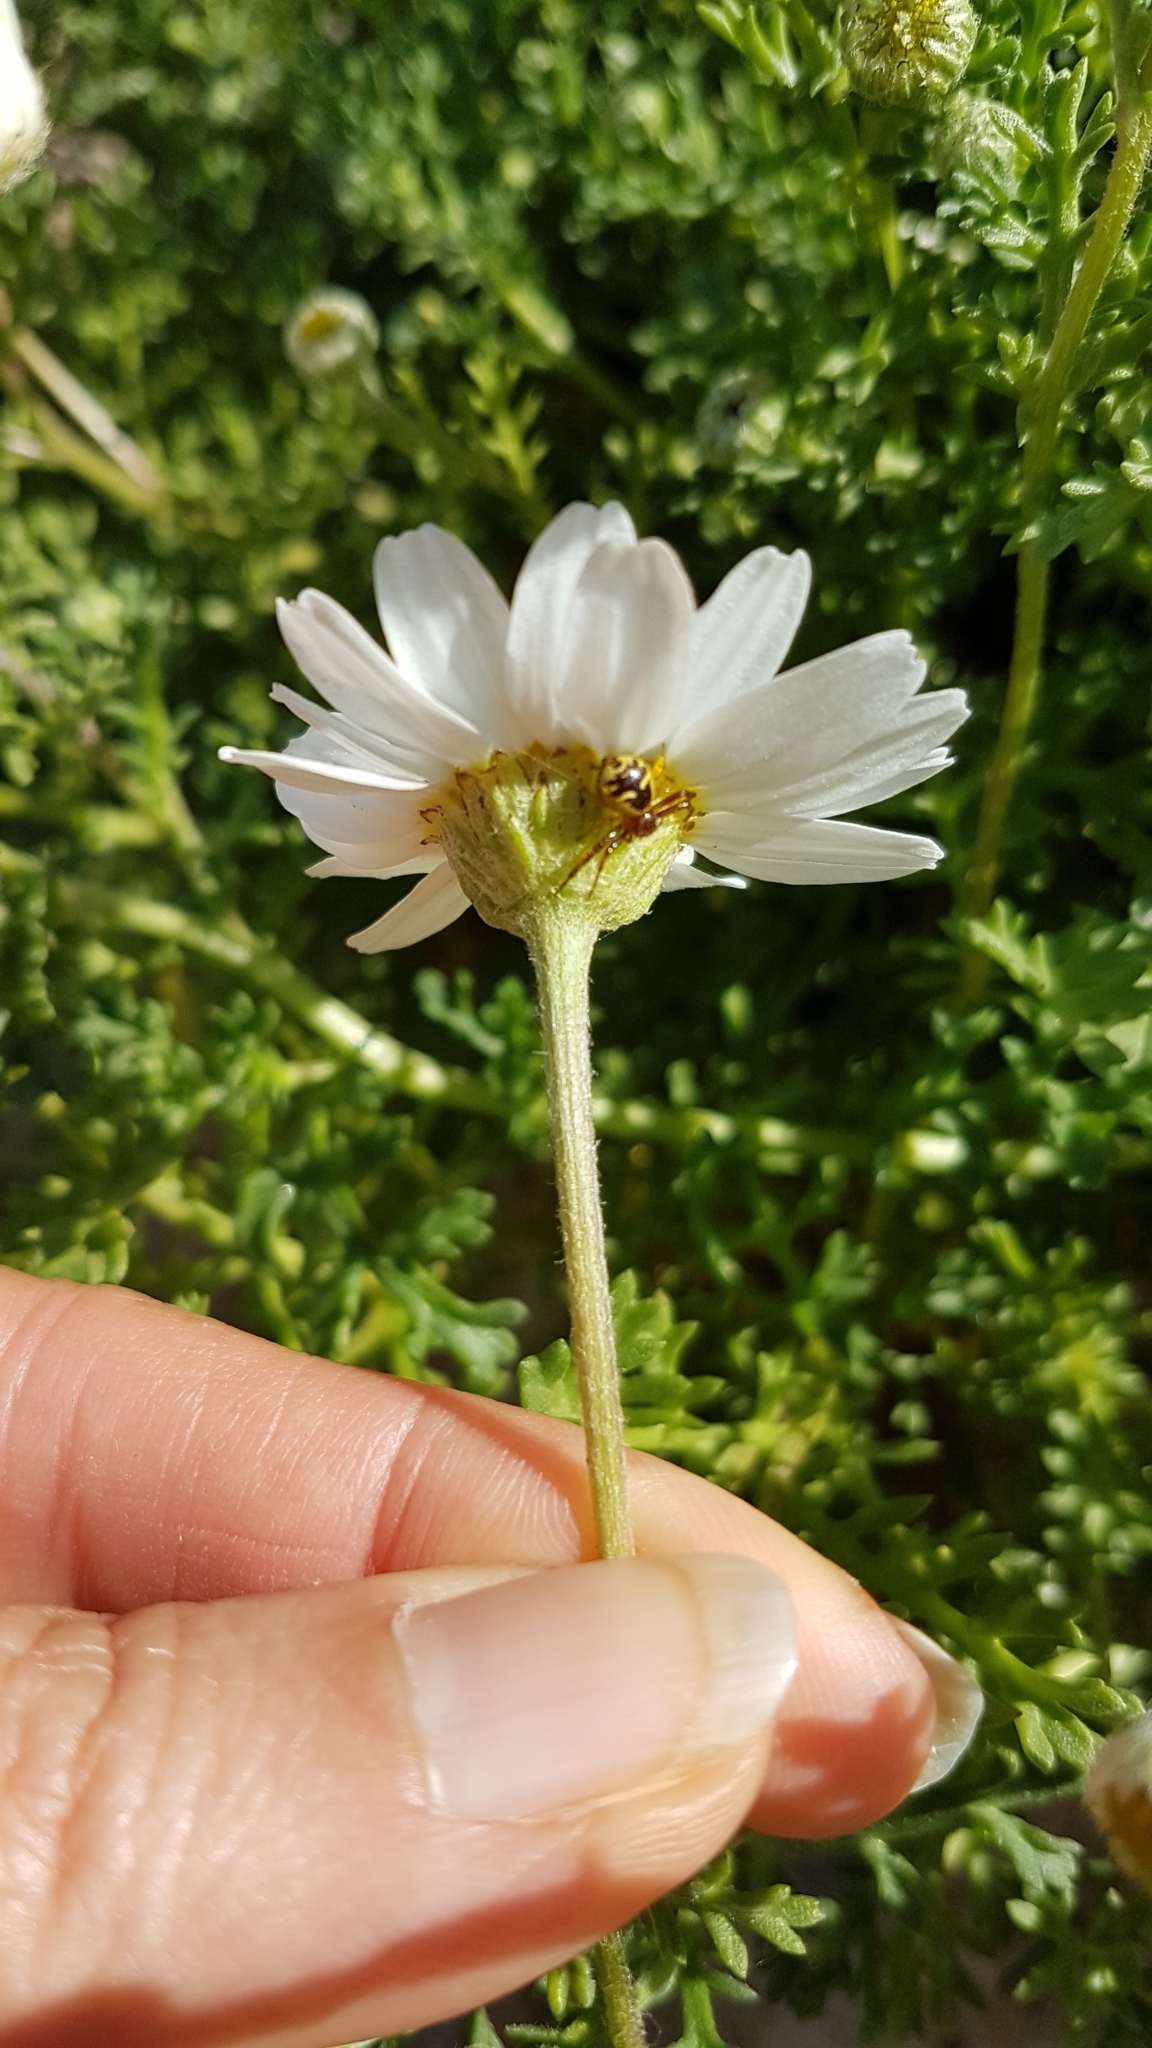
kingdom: Animalia
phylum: Arthropoda
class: Arachnida
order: Araneae
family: Thomisidae
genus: Synema
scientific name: Synema globosum
